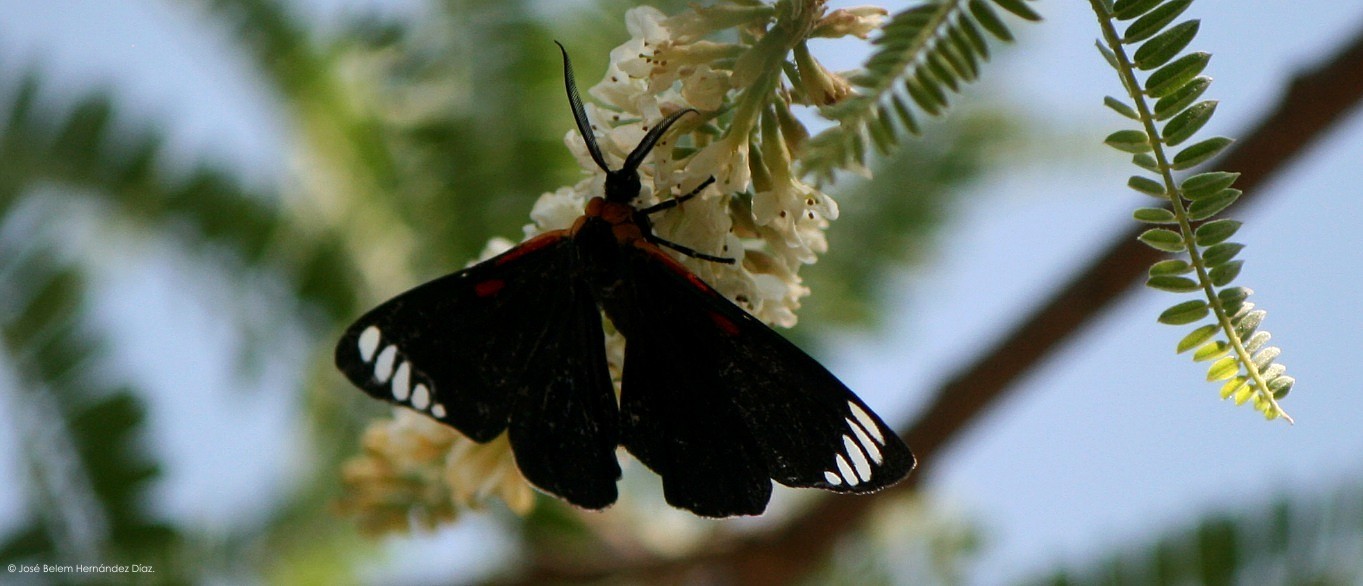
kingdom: Animalia
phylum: Arthropoda
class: Insecta
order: Lepidoptera
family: Erebidae
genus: Phaloesia
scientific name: Phaloesia saucia
